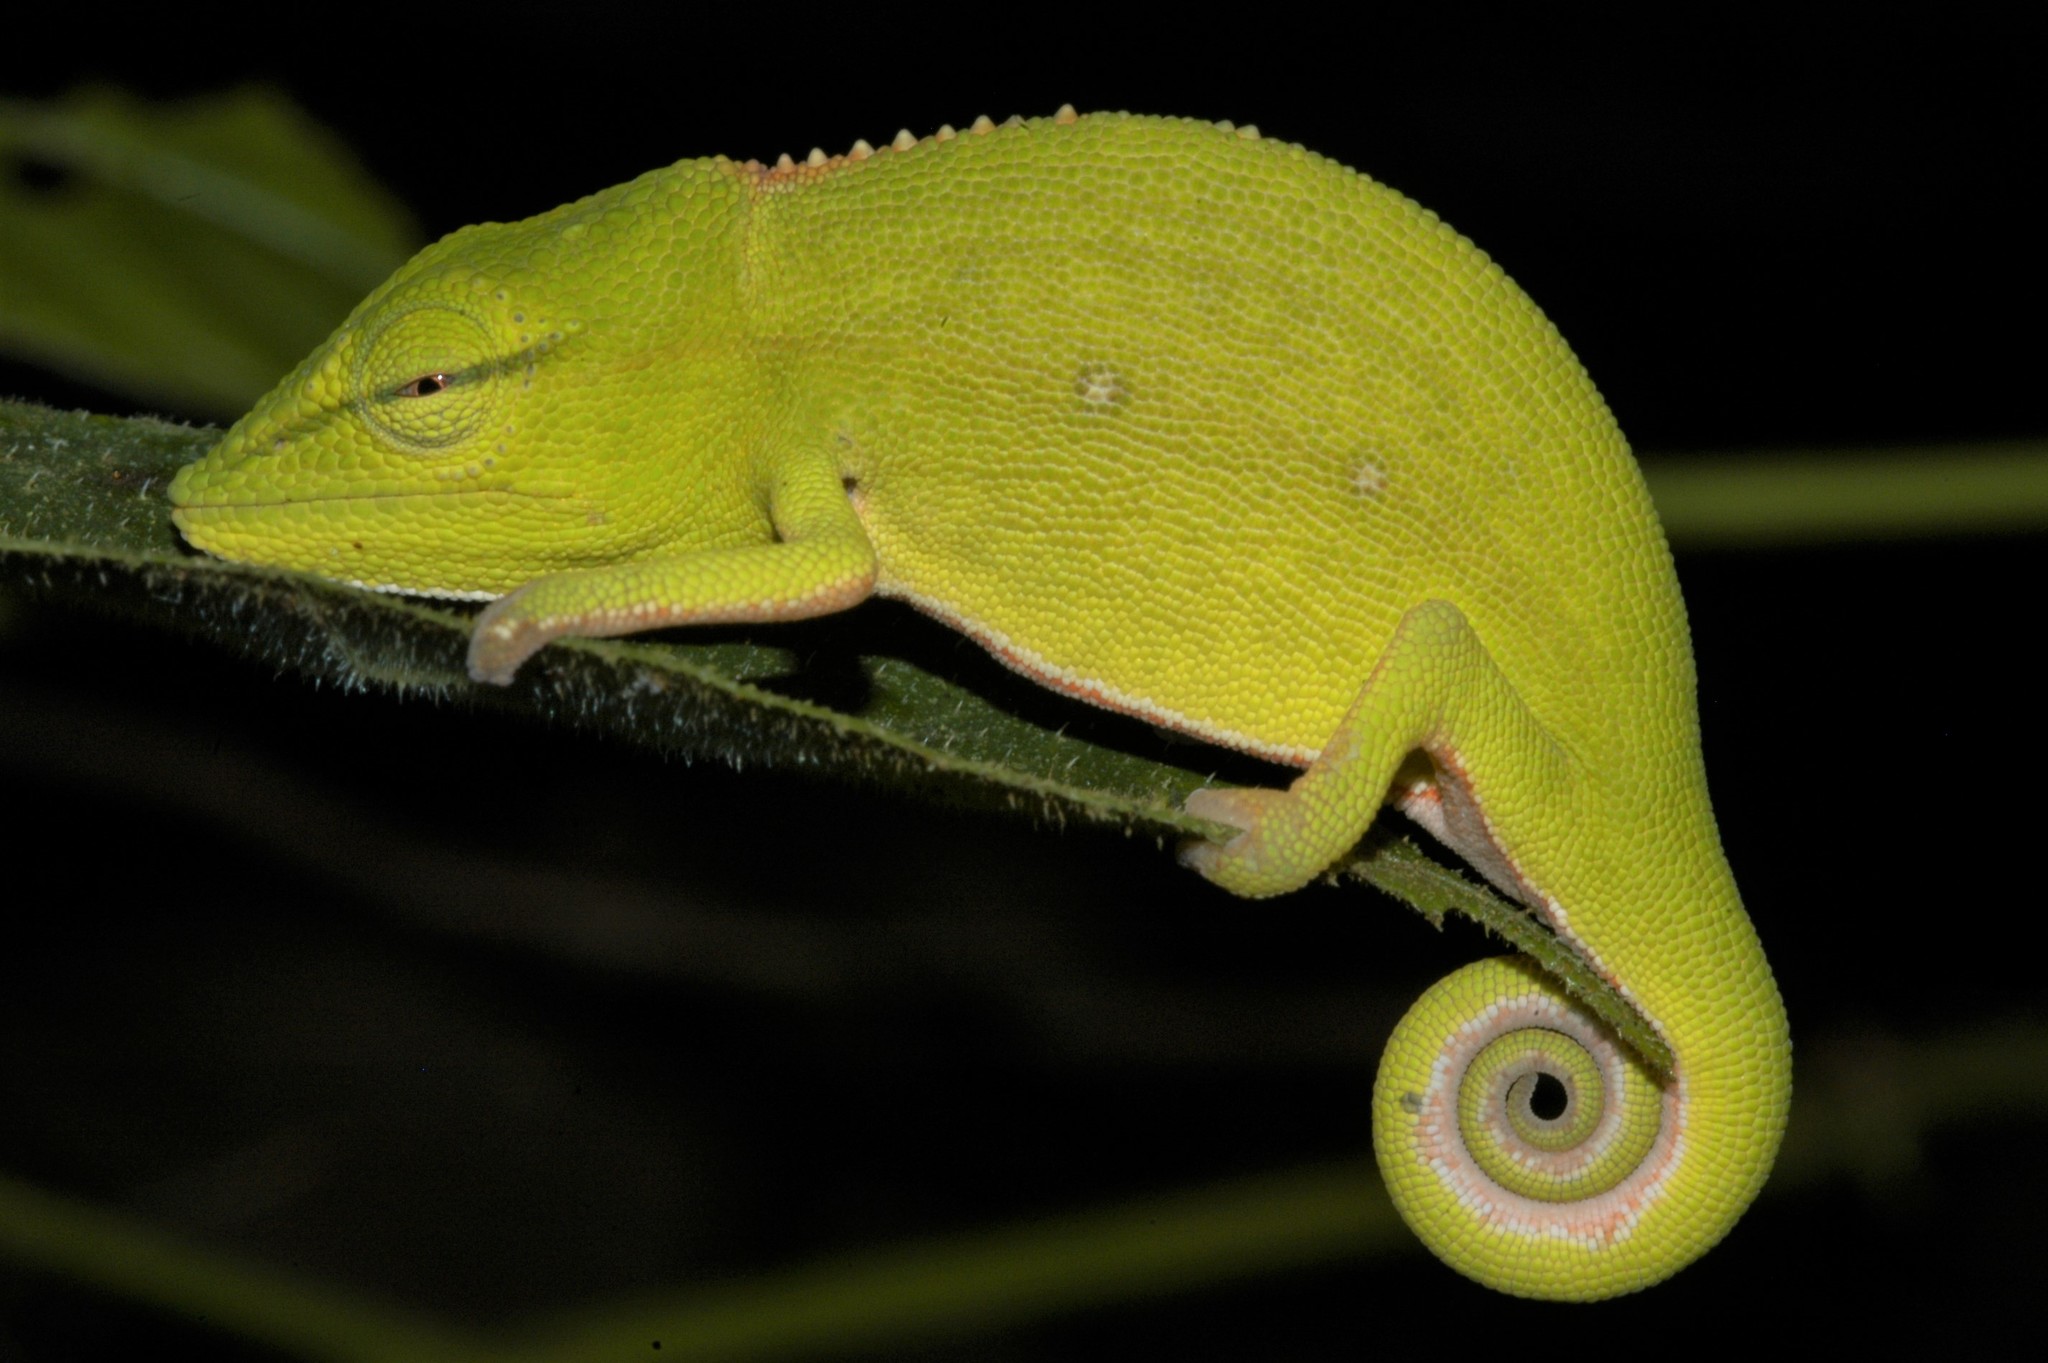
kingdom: Animalia
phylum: Chordata
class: Squamata
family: Chamaeleonidae
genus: Calumma
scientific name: Calumma gastrotaenia
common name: Short-nosed chameleon
